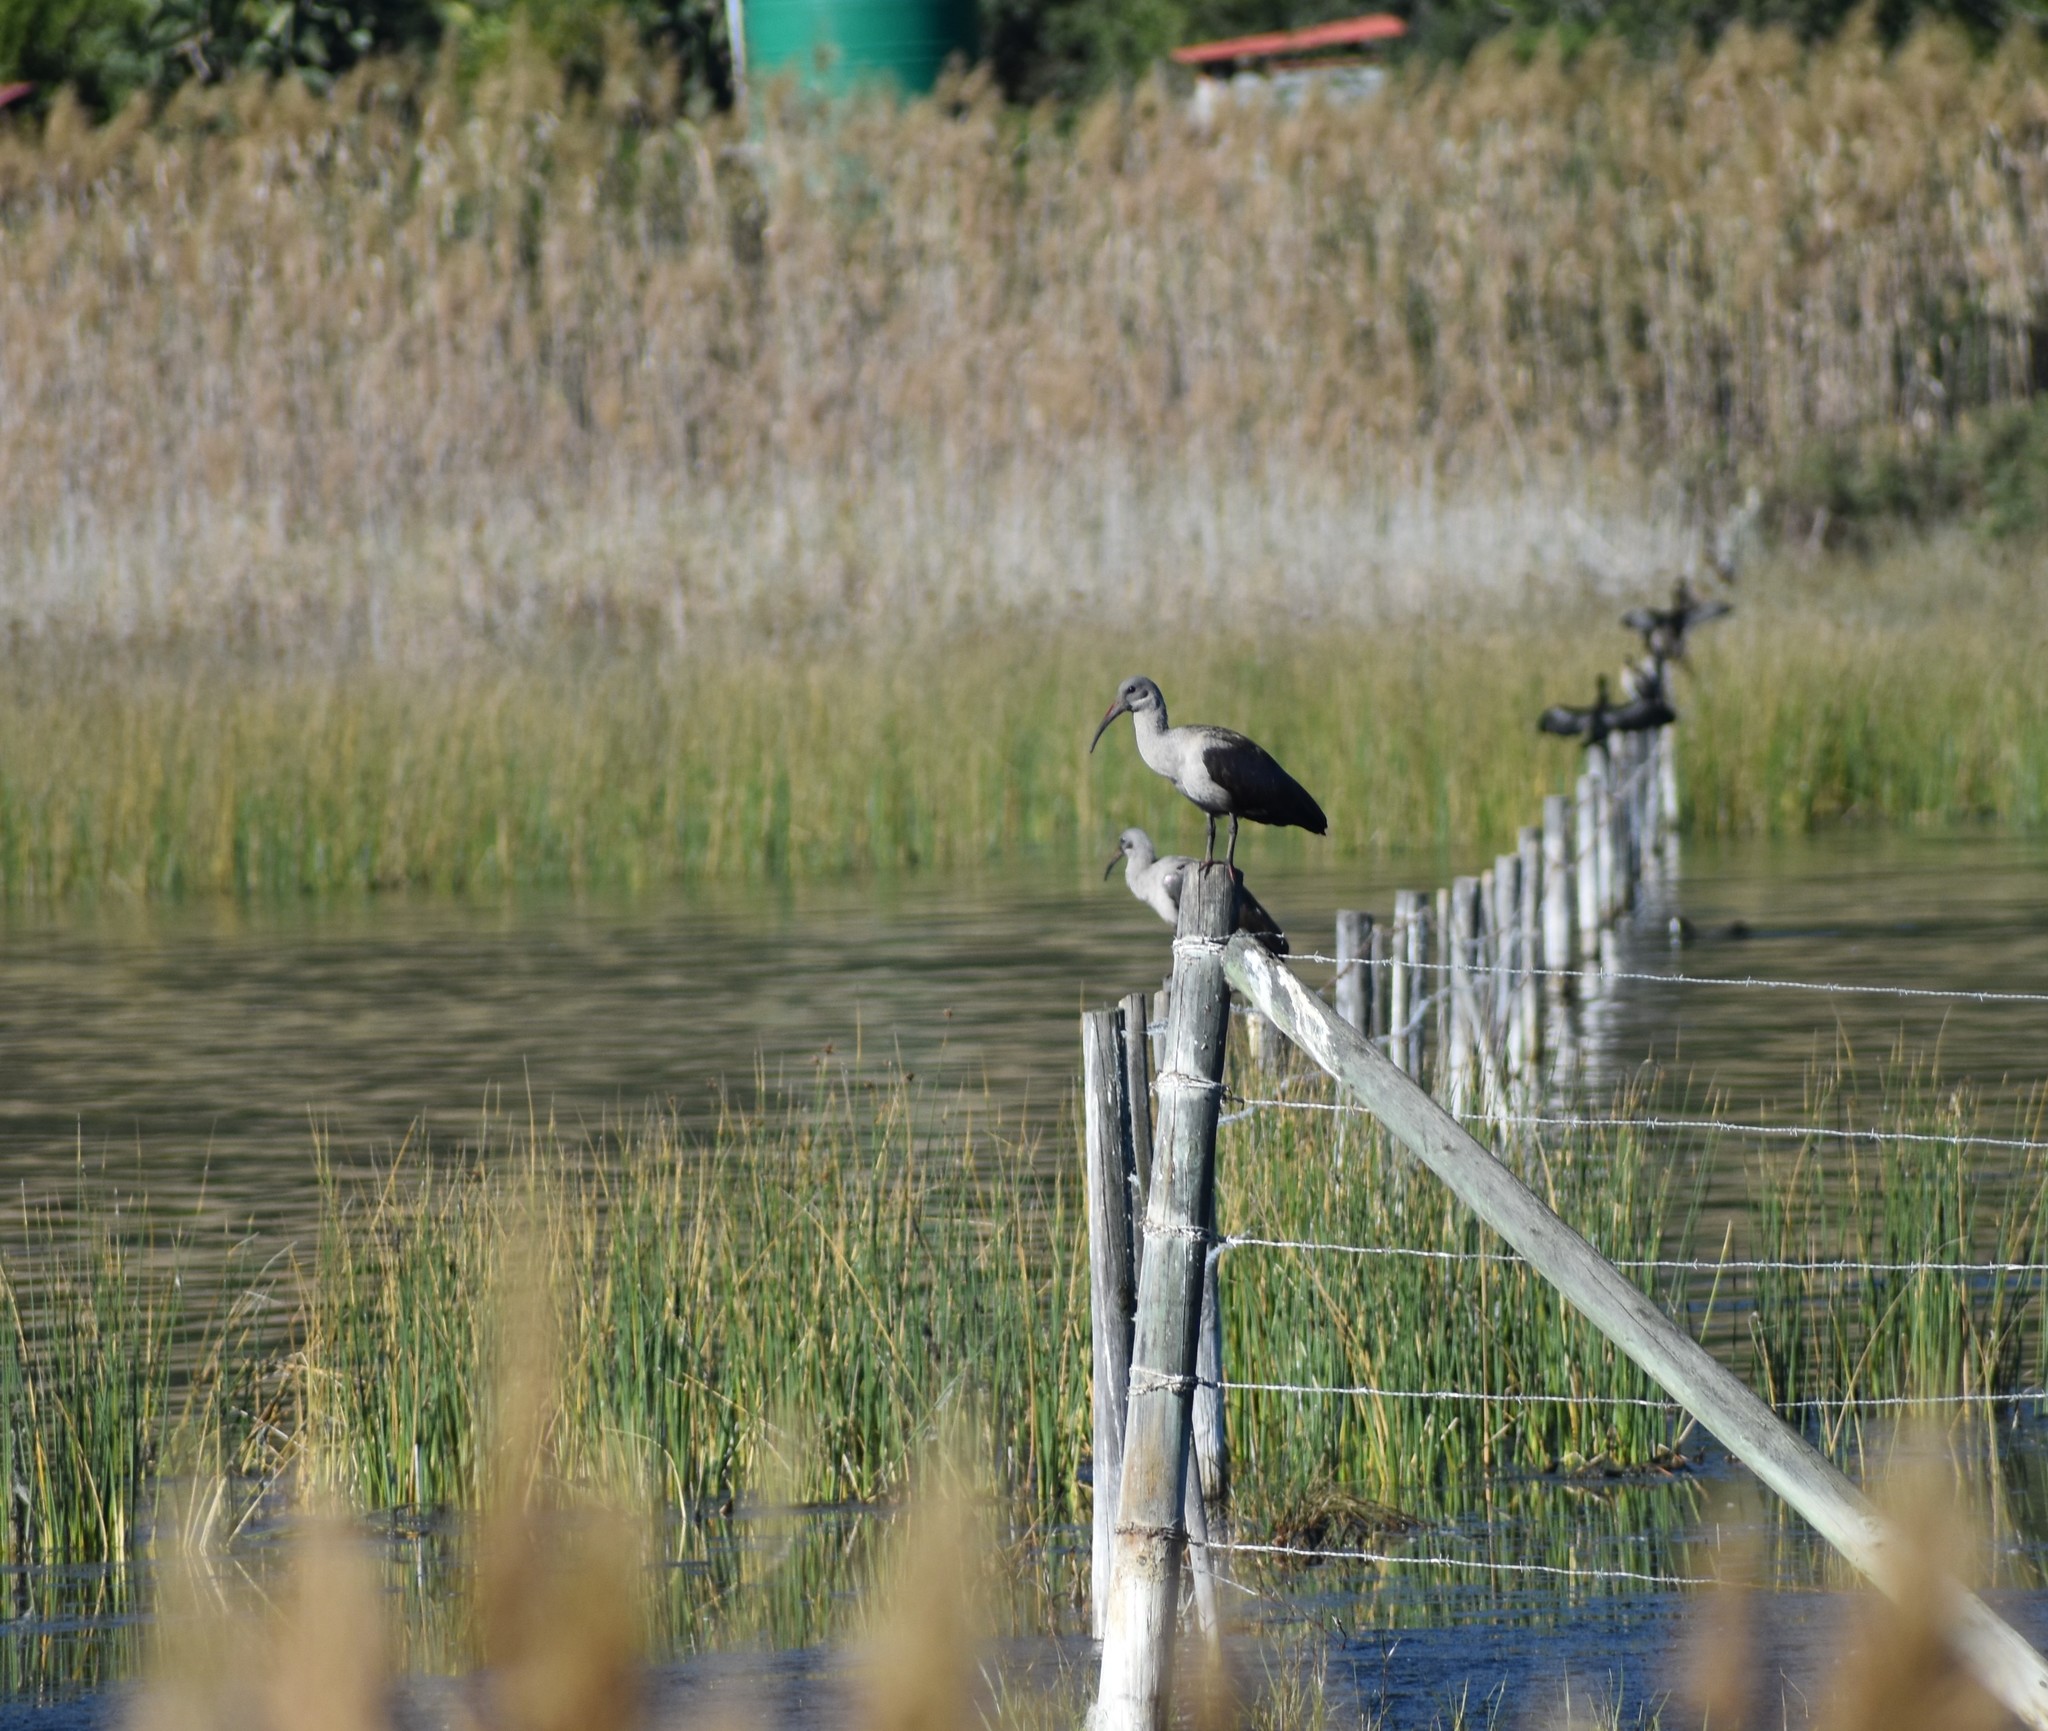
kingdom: Animalia
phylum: Chordata
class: Aves
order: Pelecaniformes
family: Threskiornithidae
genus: Bostrychia
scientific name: Bostrychia hagedash
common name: Hadada ibis
